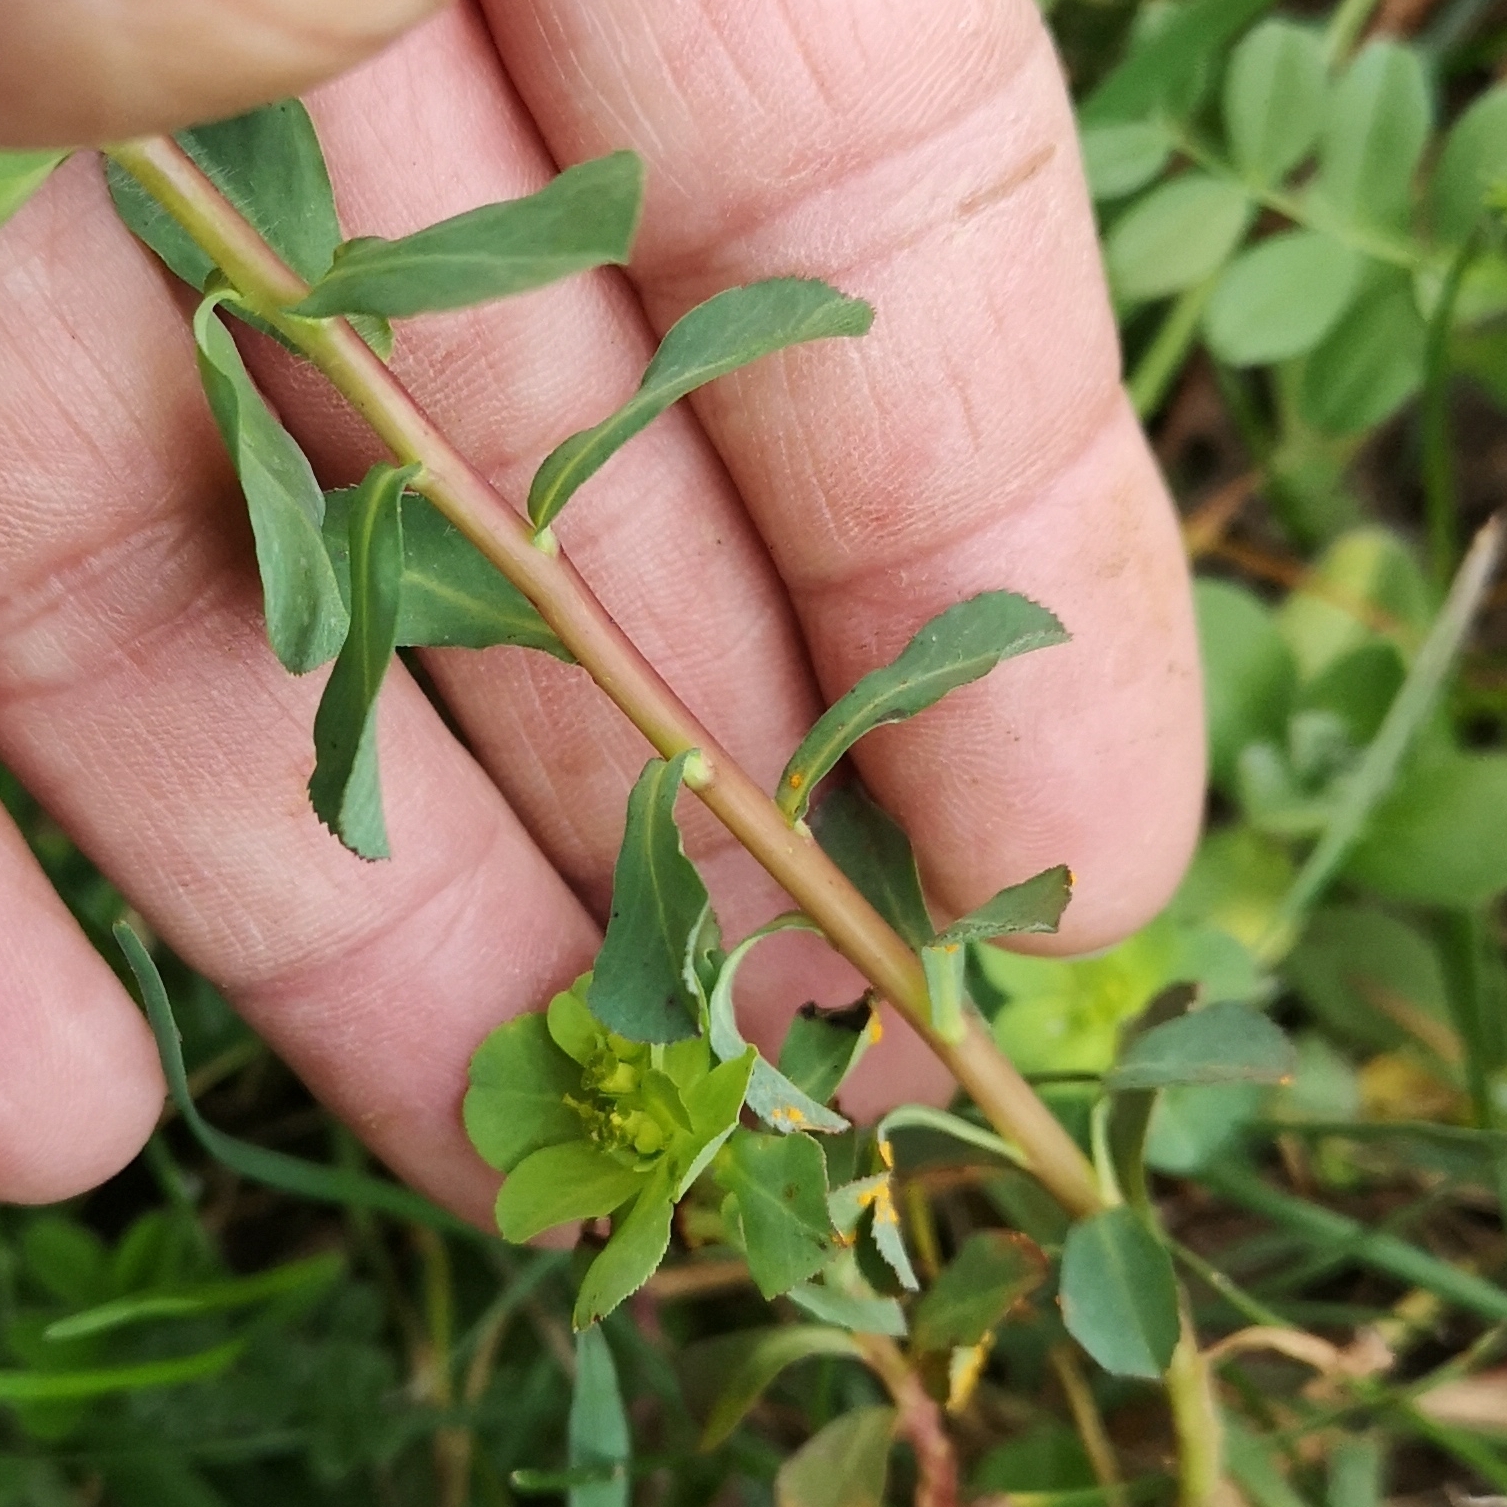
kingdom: Plantae
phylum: Tracheophyta
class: Magnoliopsida
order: Malpighiales
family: Euphorbiaceae
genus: Euphorbia
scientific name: Euphorbia helioscopia
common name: Sun spurge
